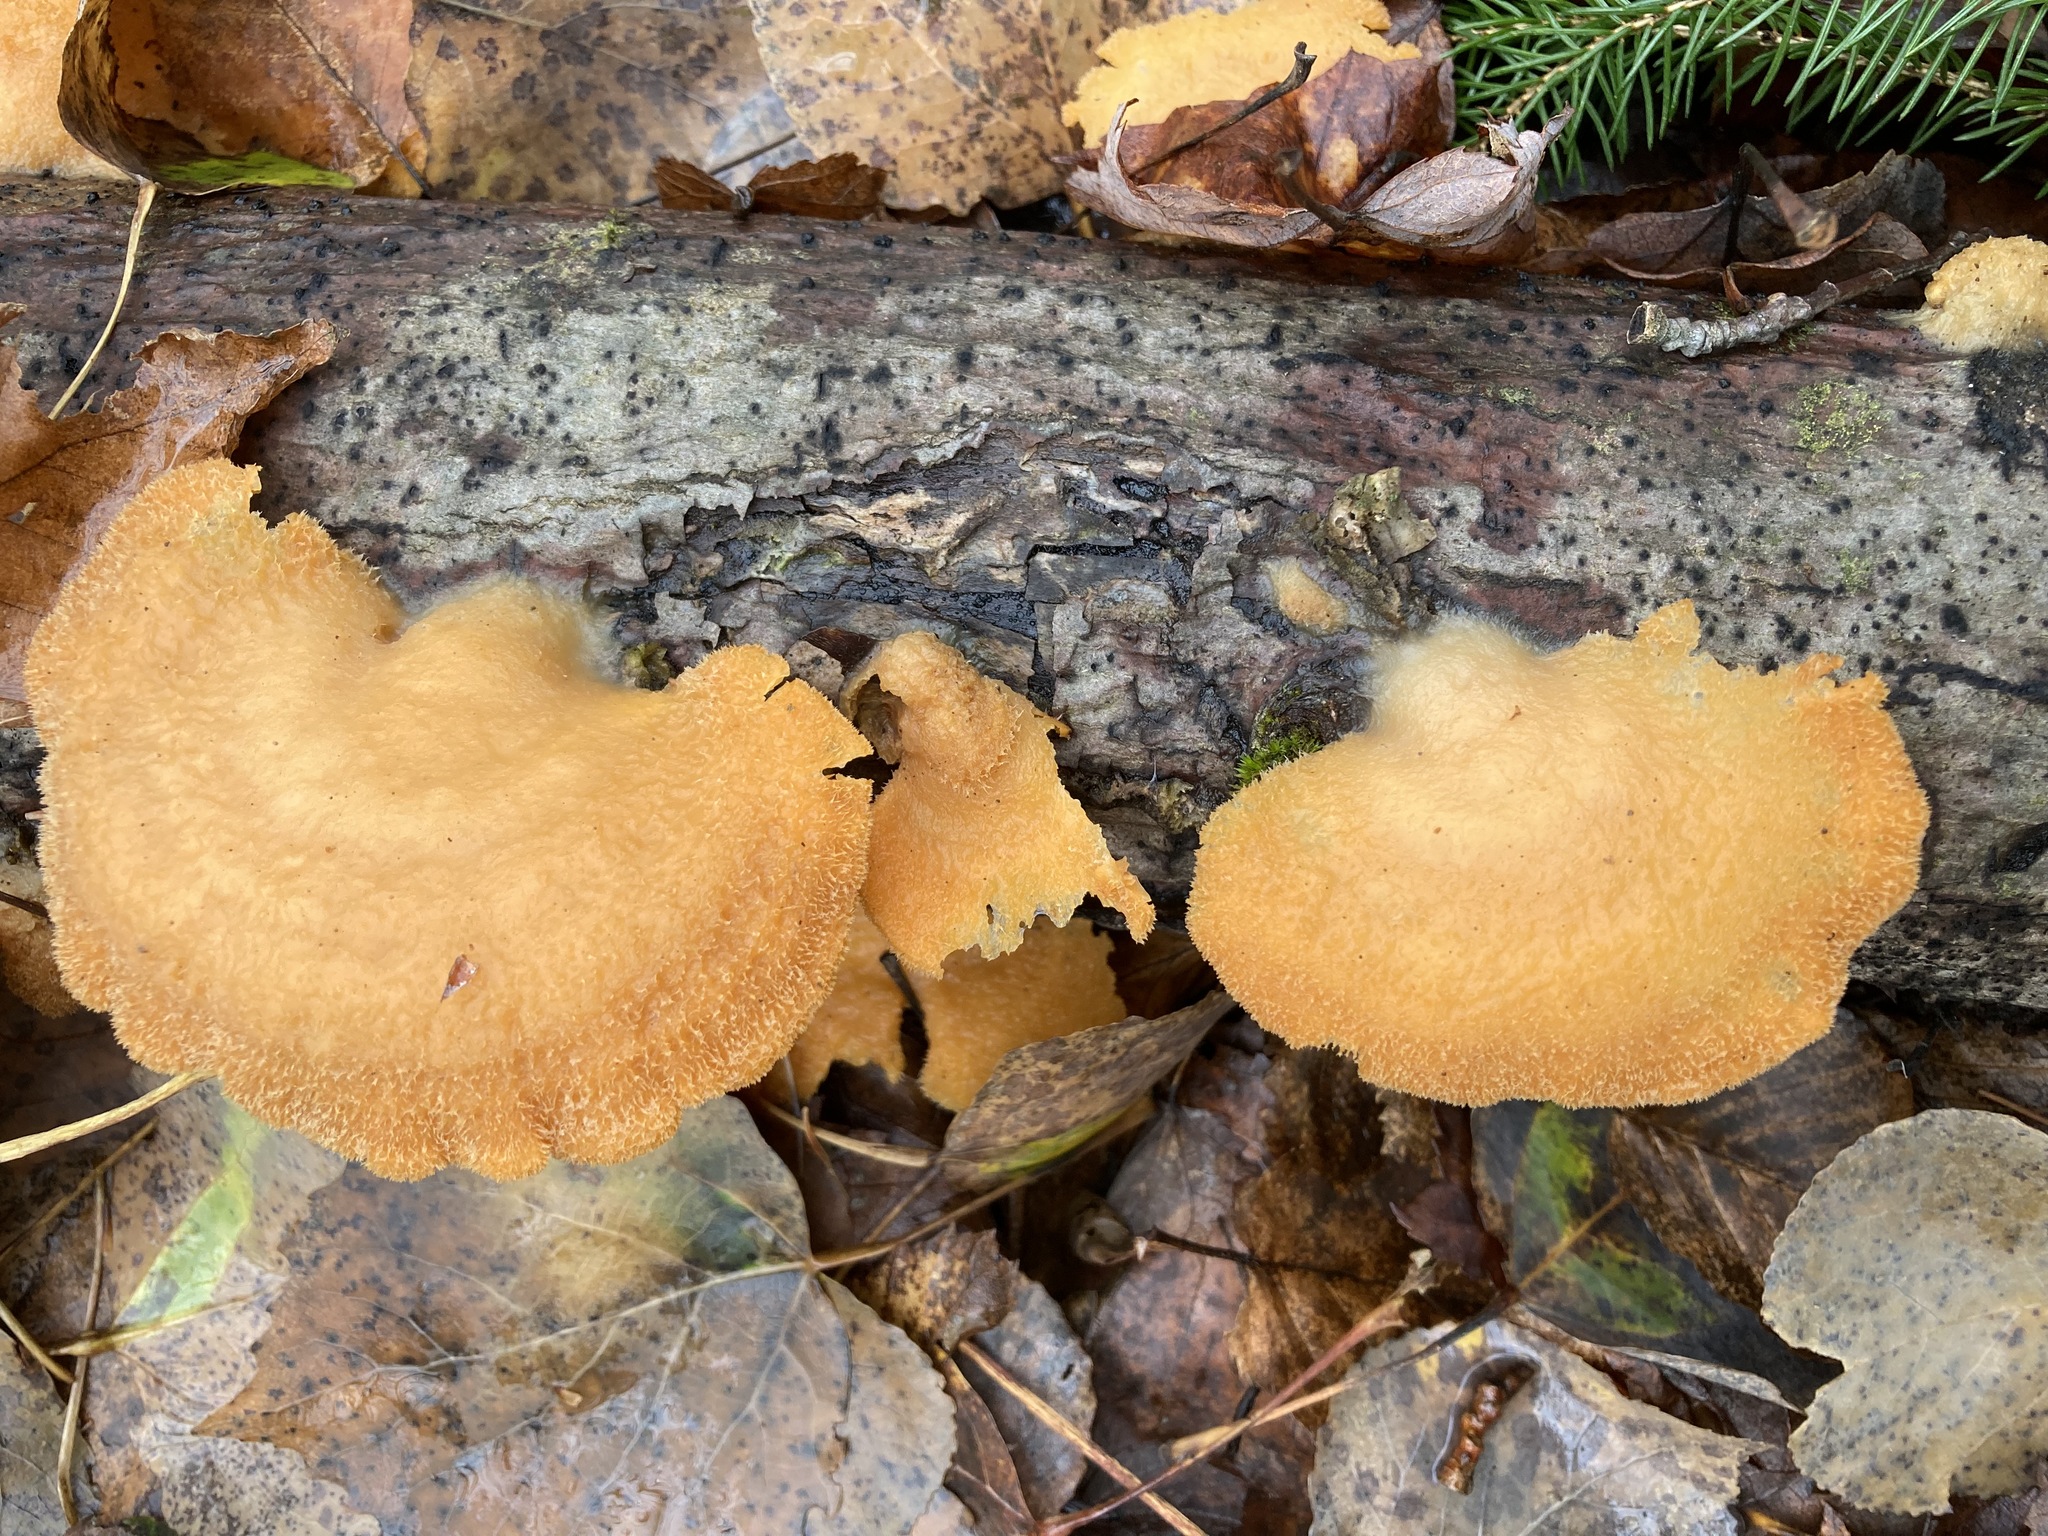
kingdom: Fungi
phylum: Basidiomycota
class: Agaricomycetes
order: Agaricales
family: Phyllotopsidaceae
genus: Phyllotopsis
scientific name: Phyllotopsis nidulans
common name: Orange mock oyster
